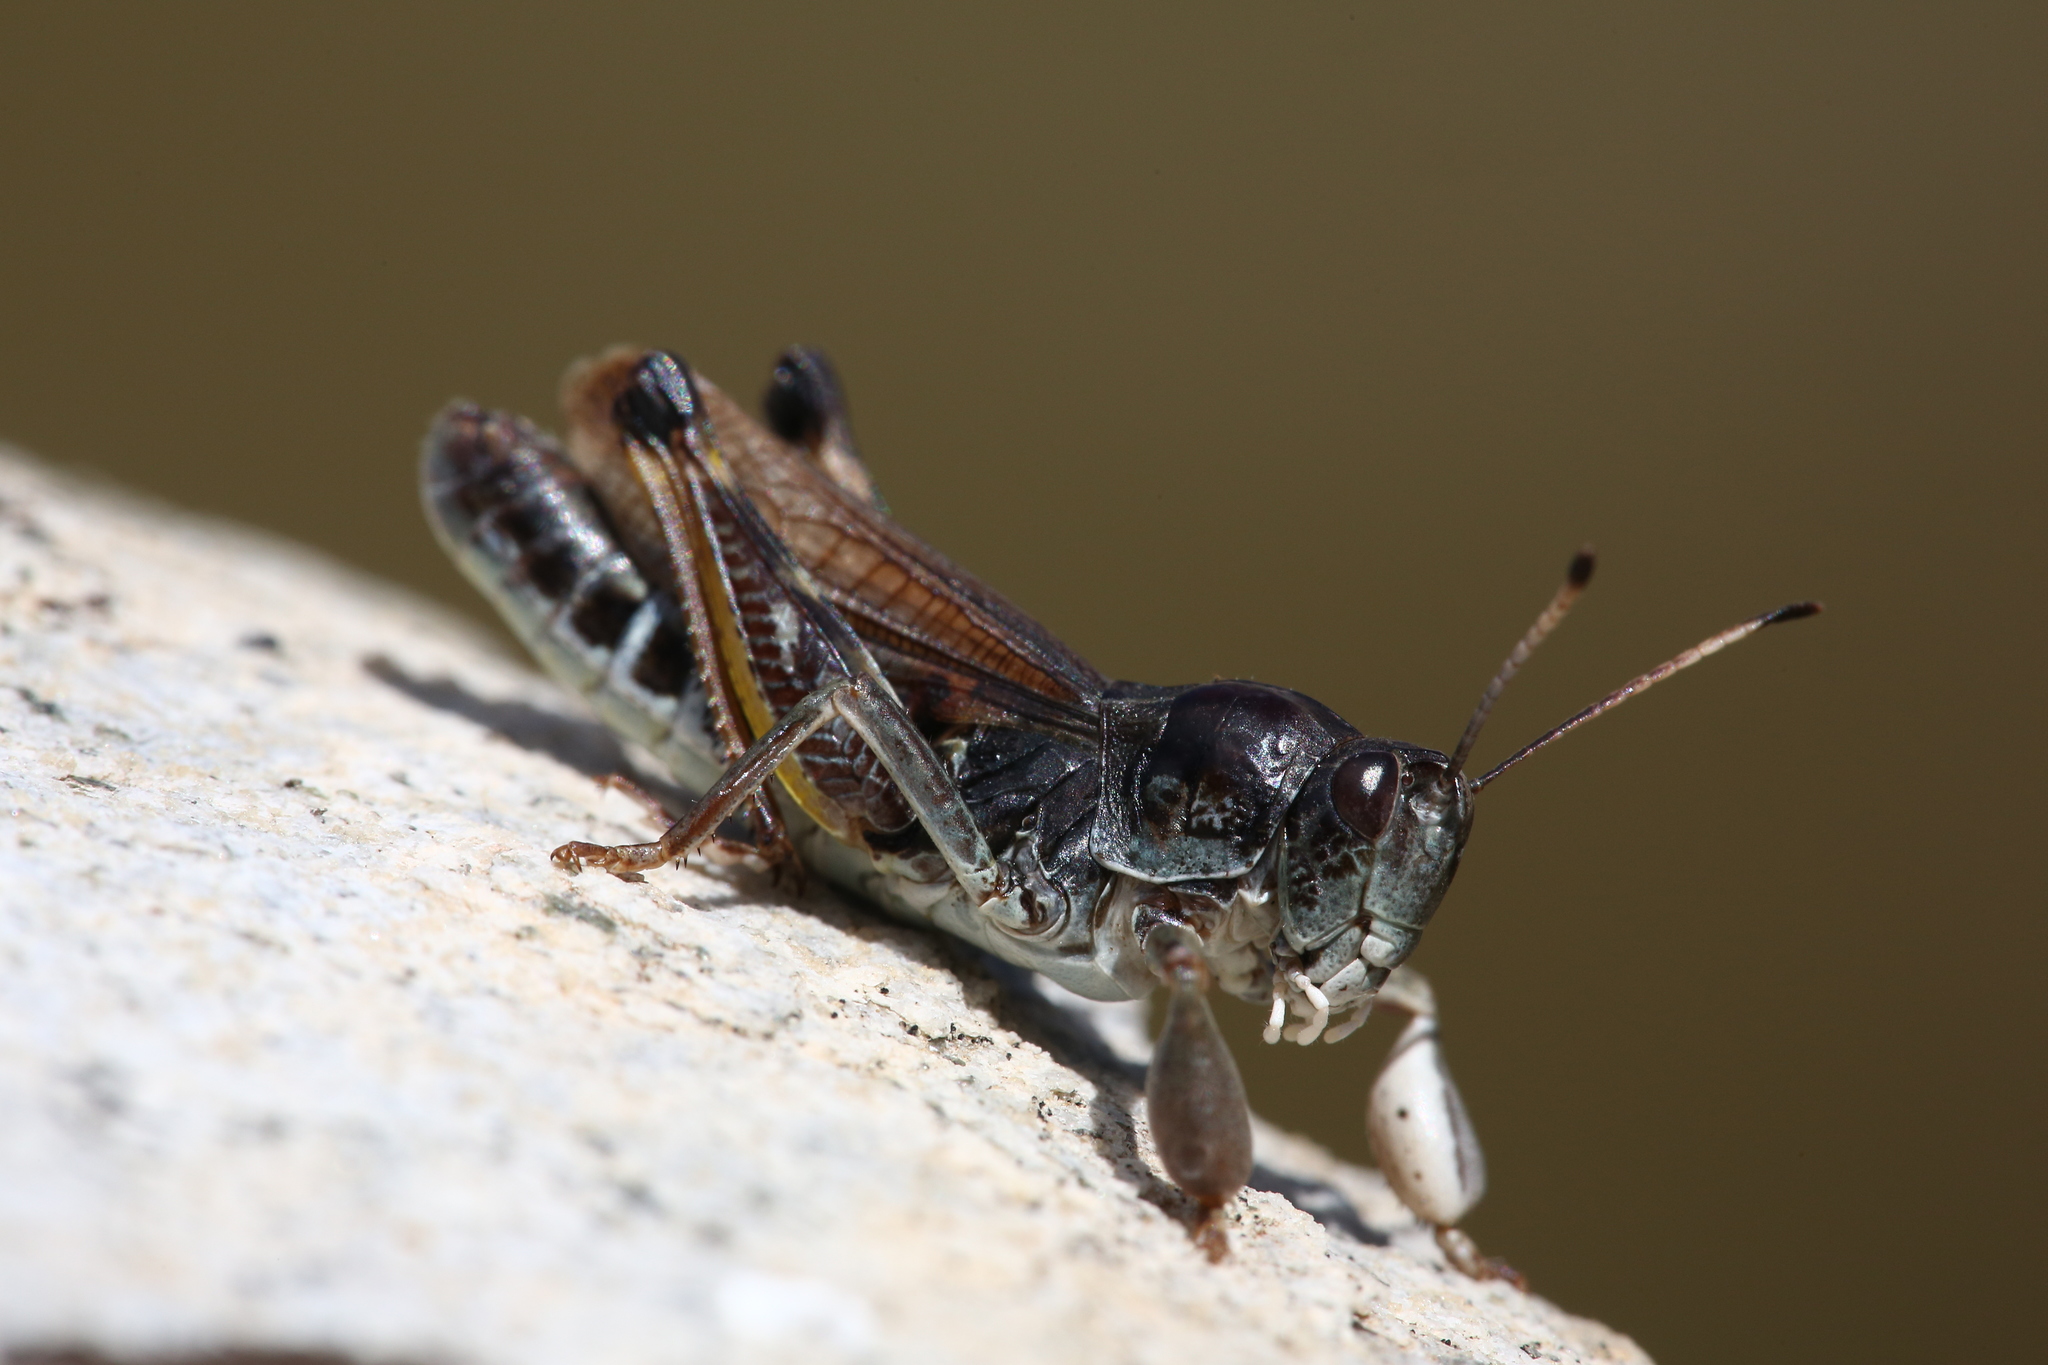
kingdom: Animalia
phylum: Arthropoda
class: Insecta
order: Orthoptera
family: Acrididae
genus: Gomphocerus
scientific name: Gomphocerus sibiricus
